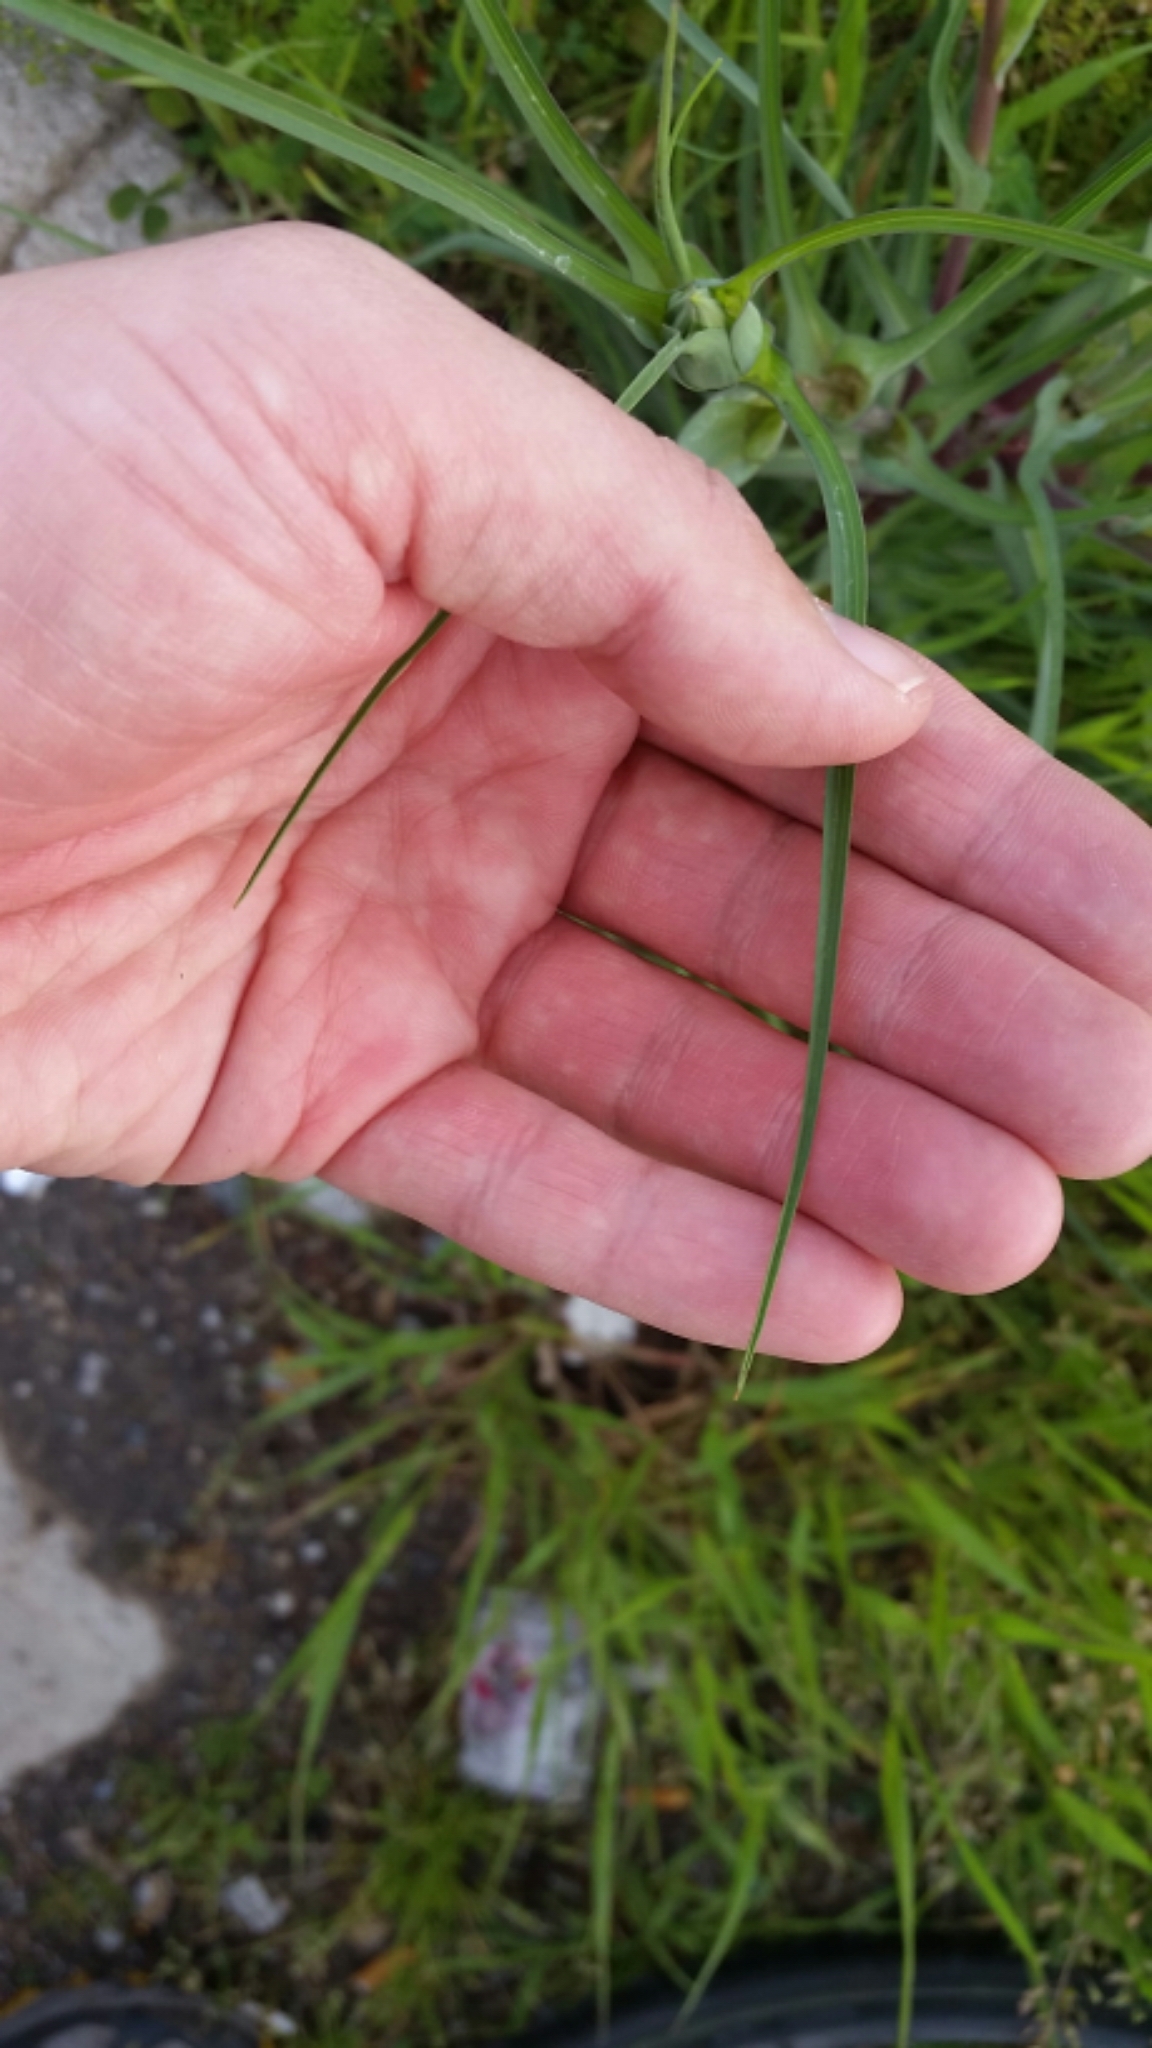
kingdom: Plantae
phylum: Tracheophyta
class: Magnoliopsida
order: Asterales
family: Asteraceae
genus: Tragopogon
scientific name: Tragopogon dubius
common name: Yellow salsify
